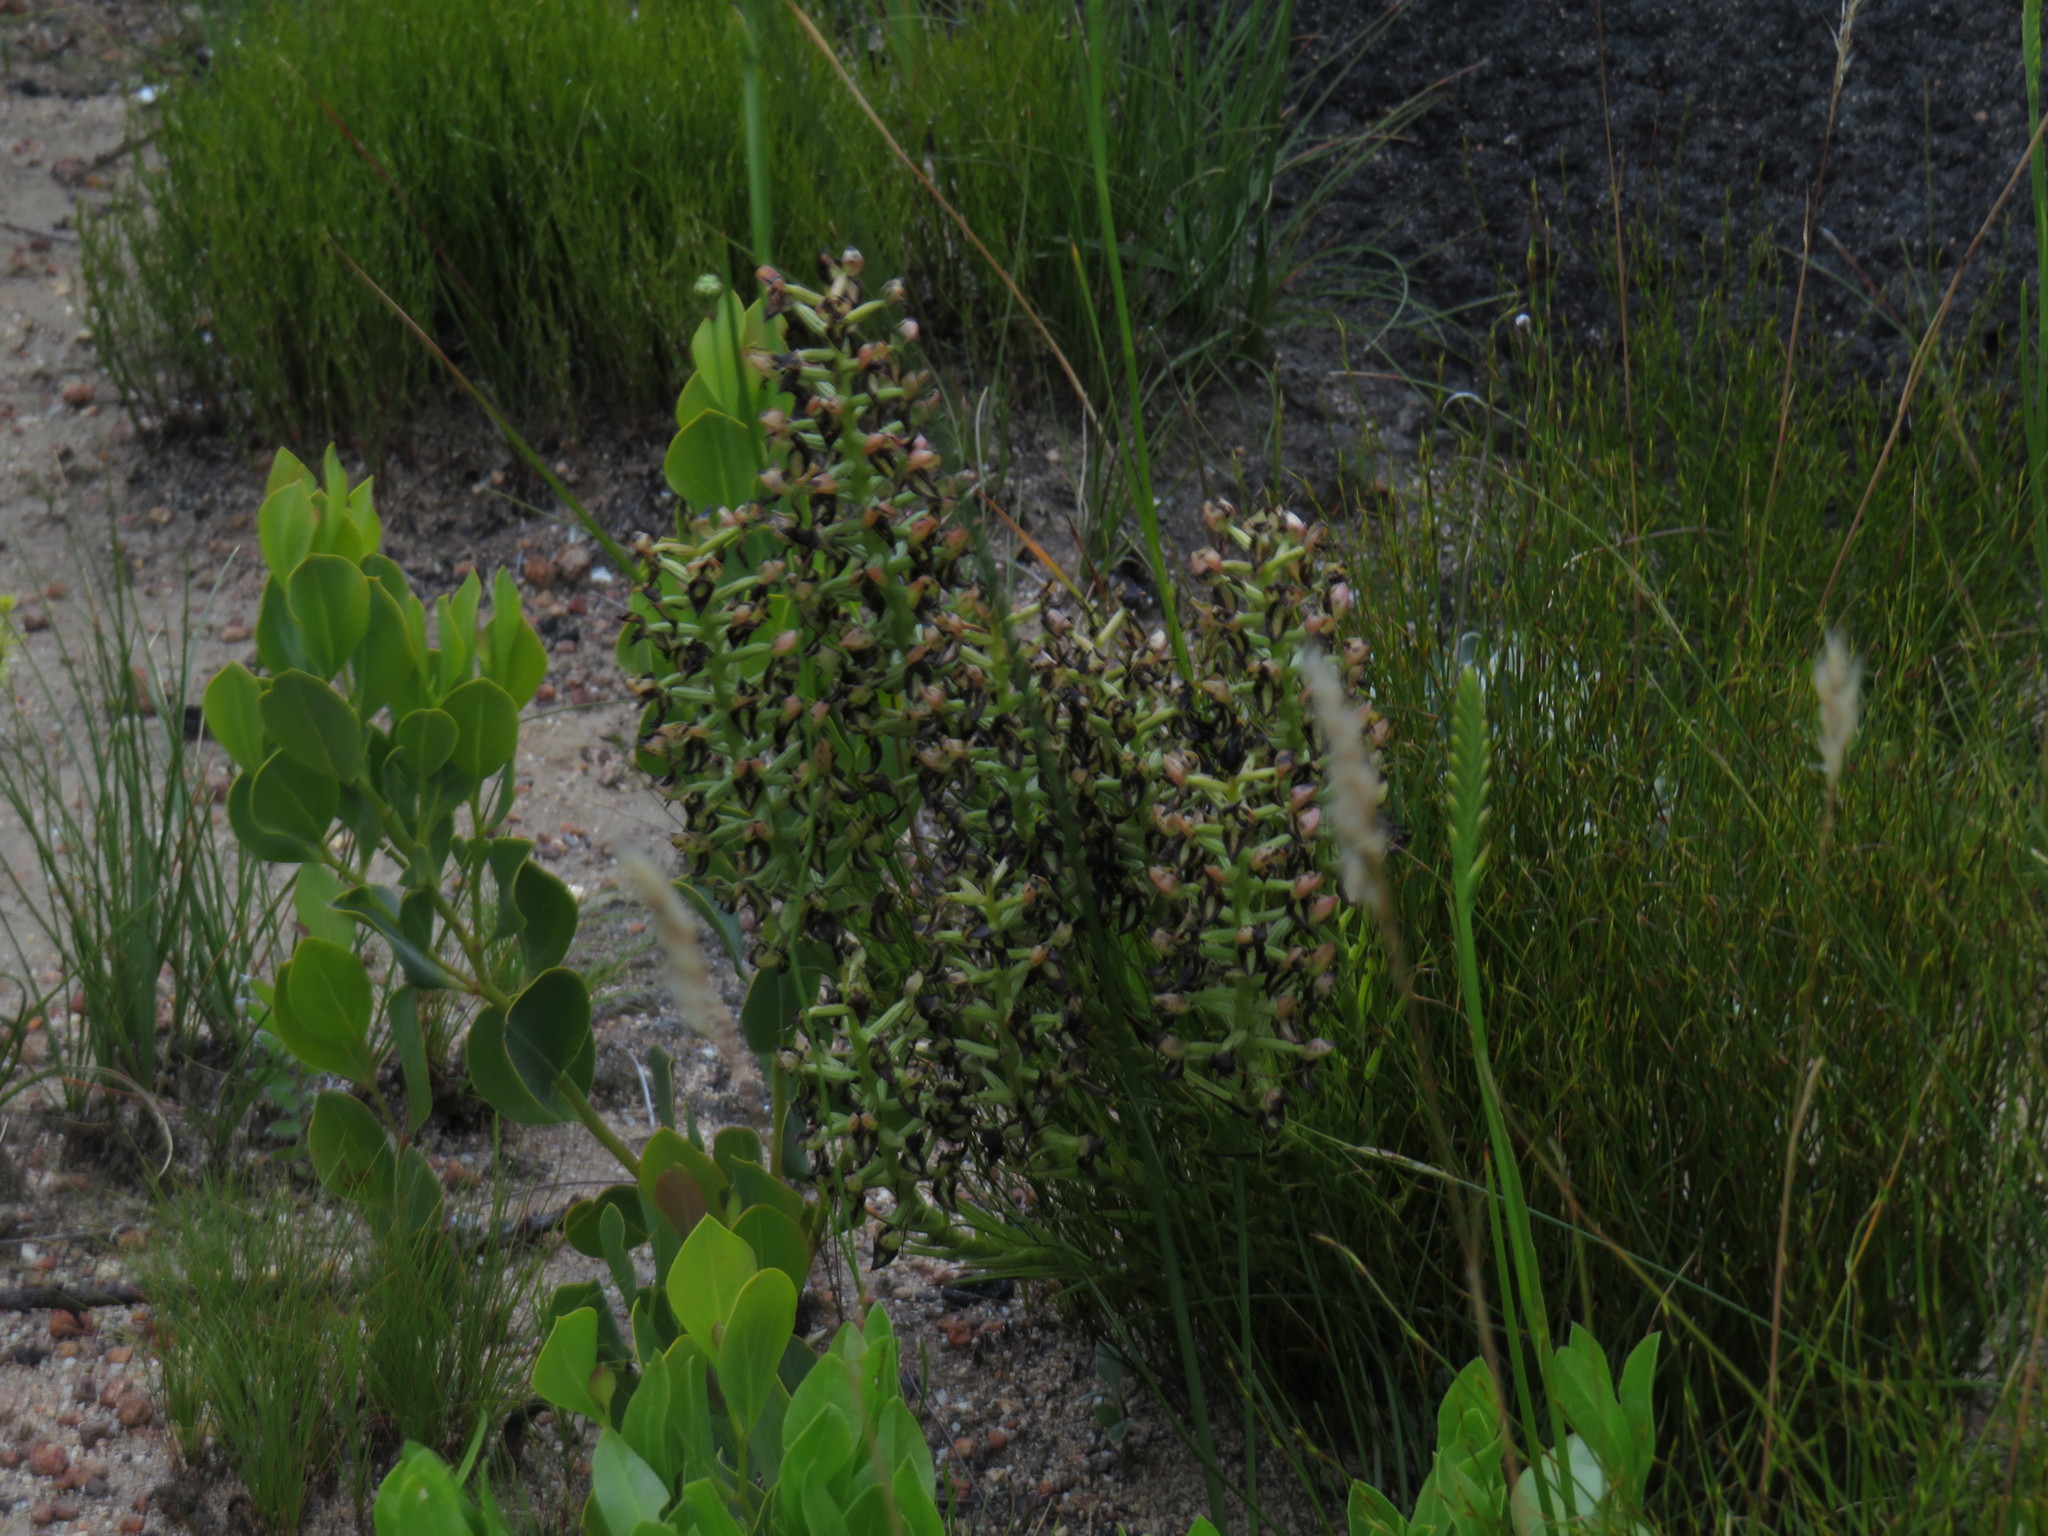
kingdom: Plantae
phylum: Tracheophyta
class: Liliopsida
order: Asparagales
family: Orchidaceae
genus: Ceratandra
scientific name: Ceratandra atrata
